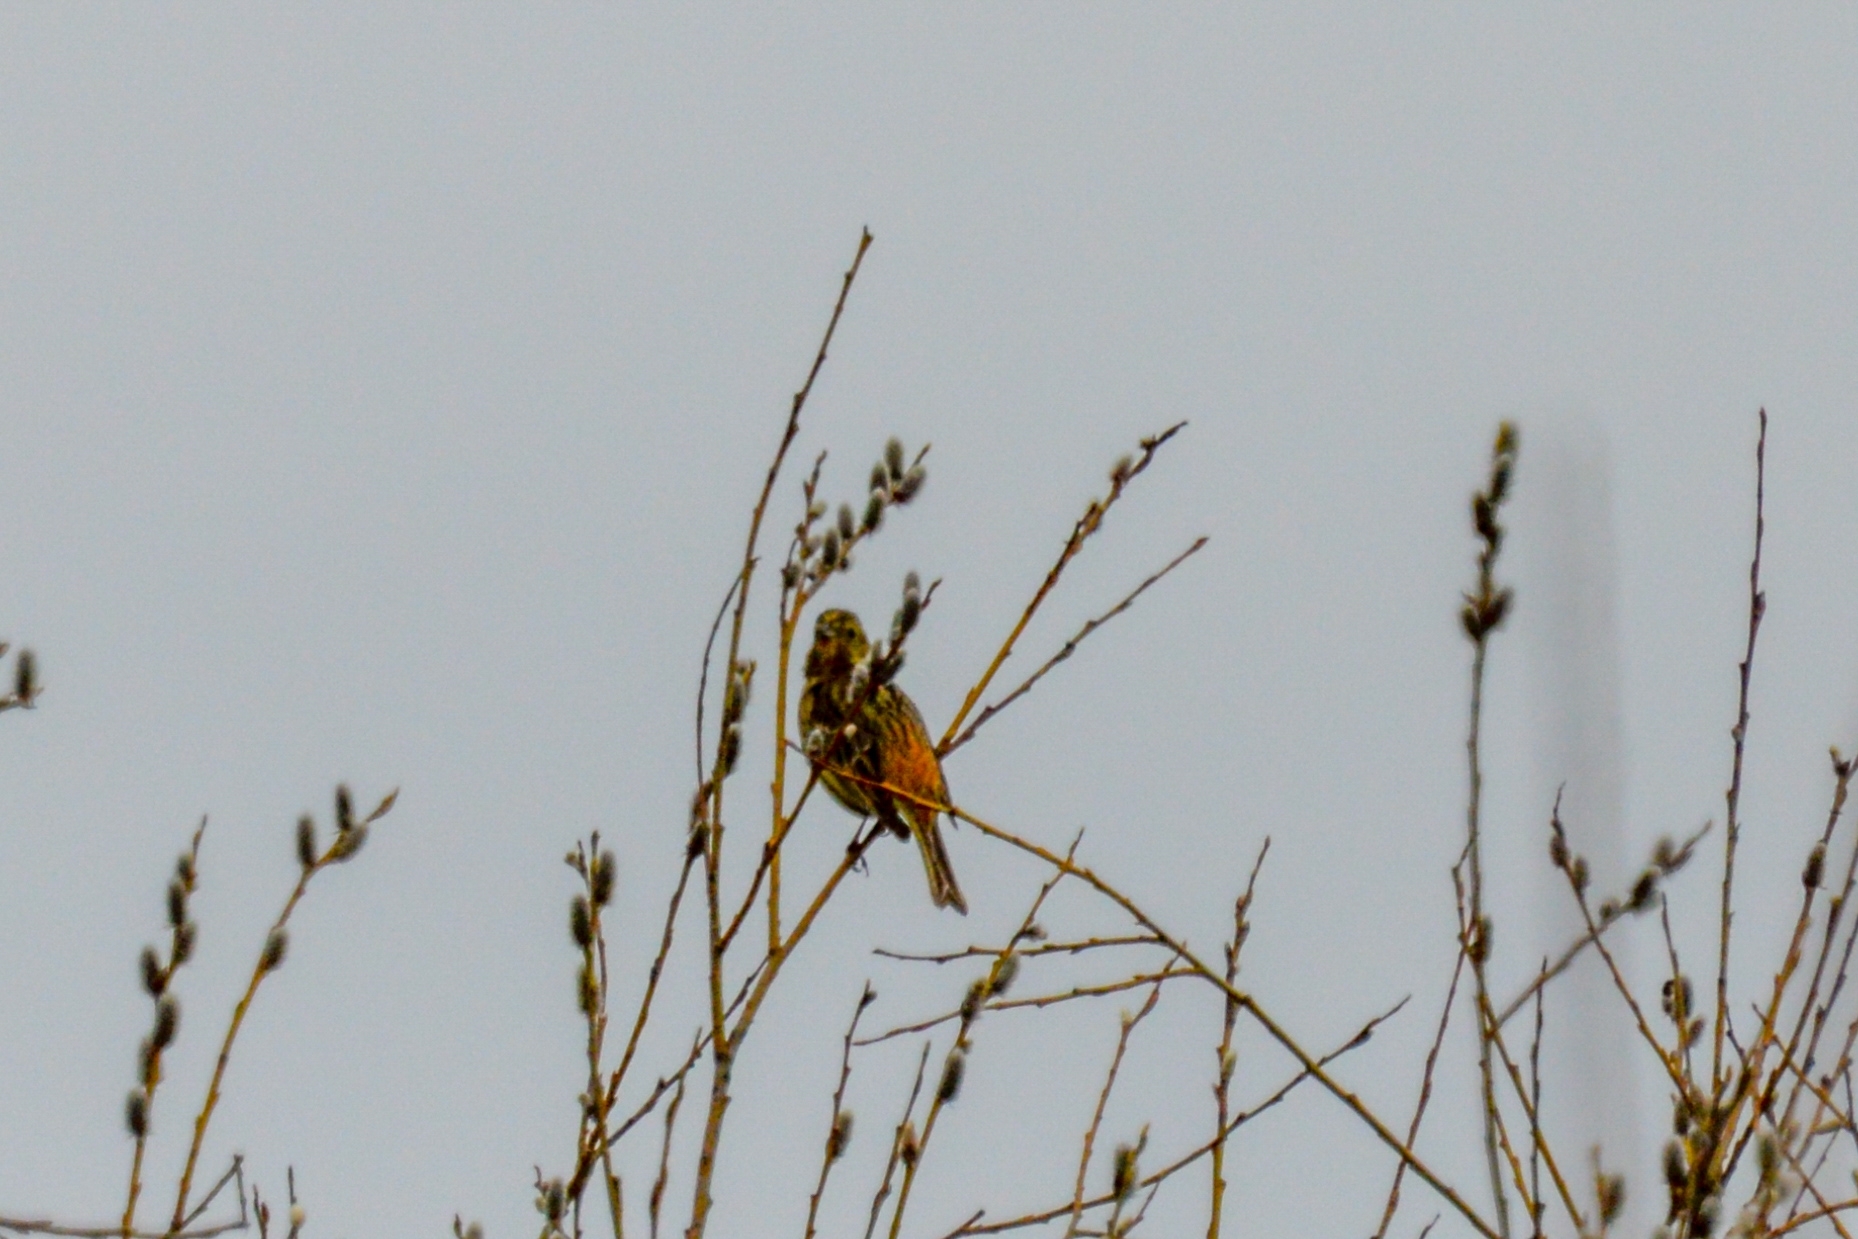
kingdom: Animalia
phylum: Chordata
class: Aves
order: Passeriformes
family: Emberizidae
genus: Emberiza
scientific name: Emberiza citrinella
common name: Yellowhammer
